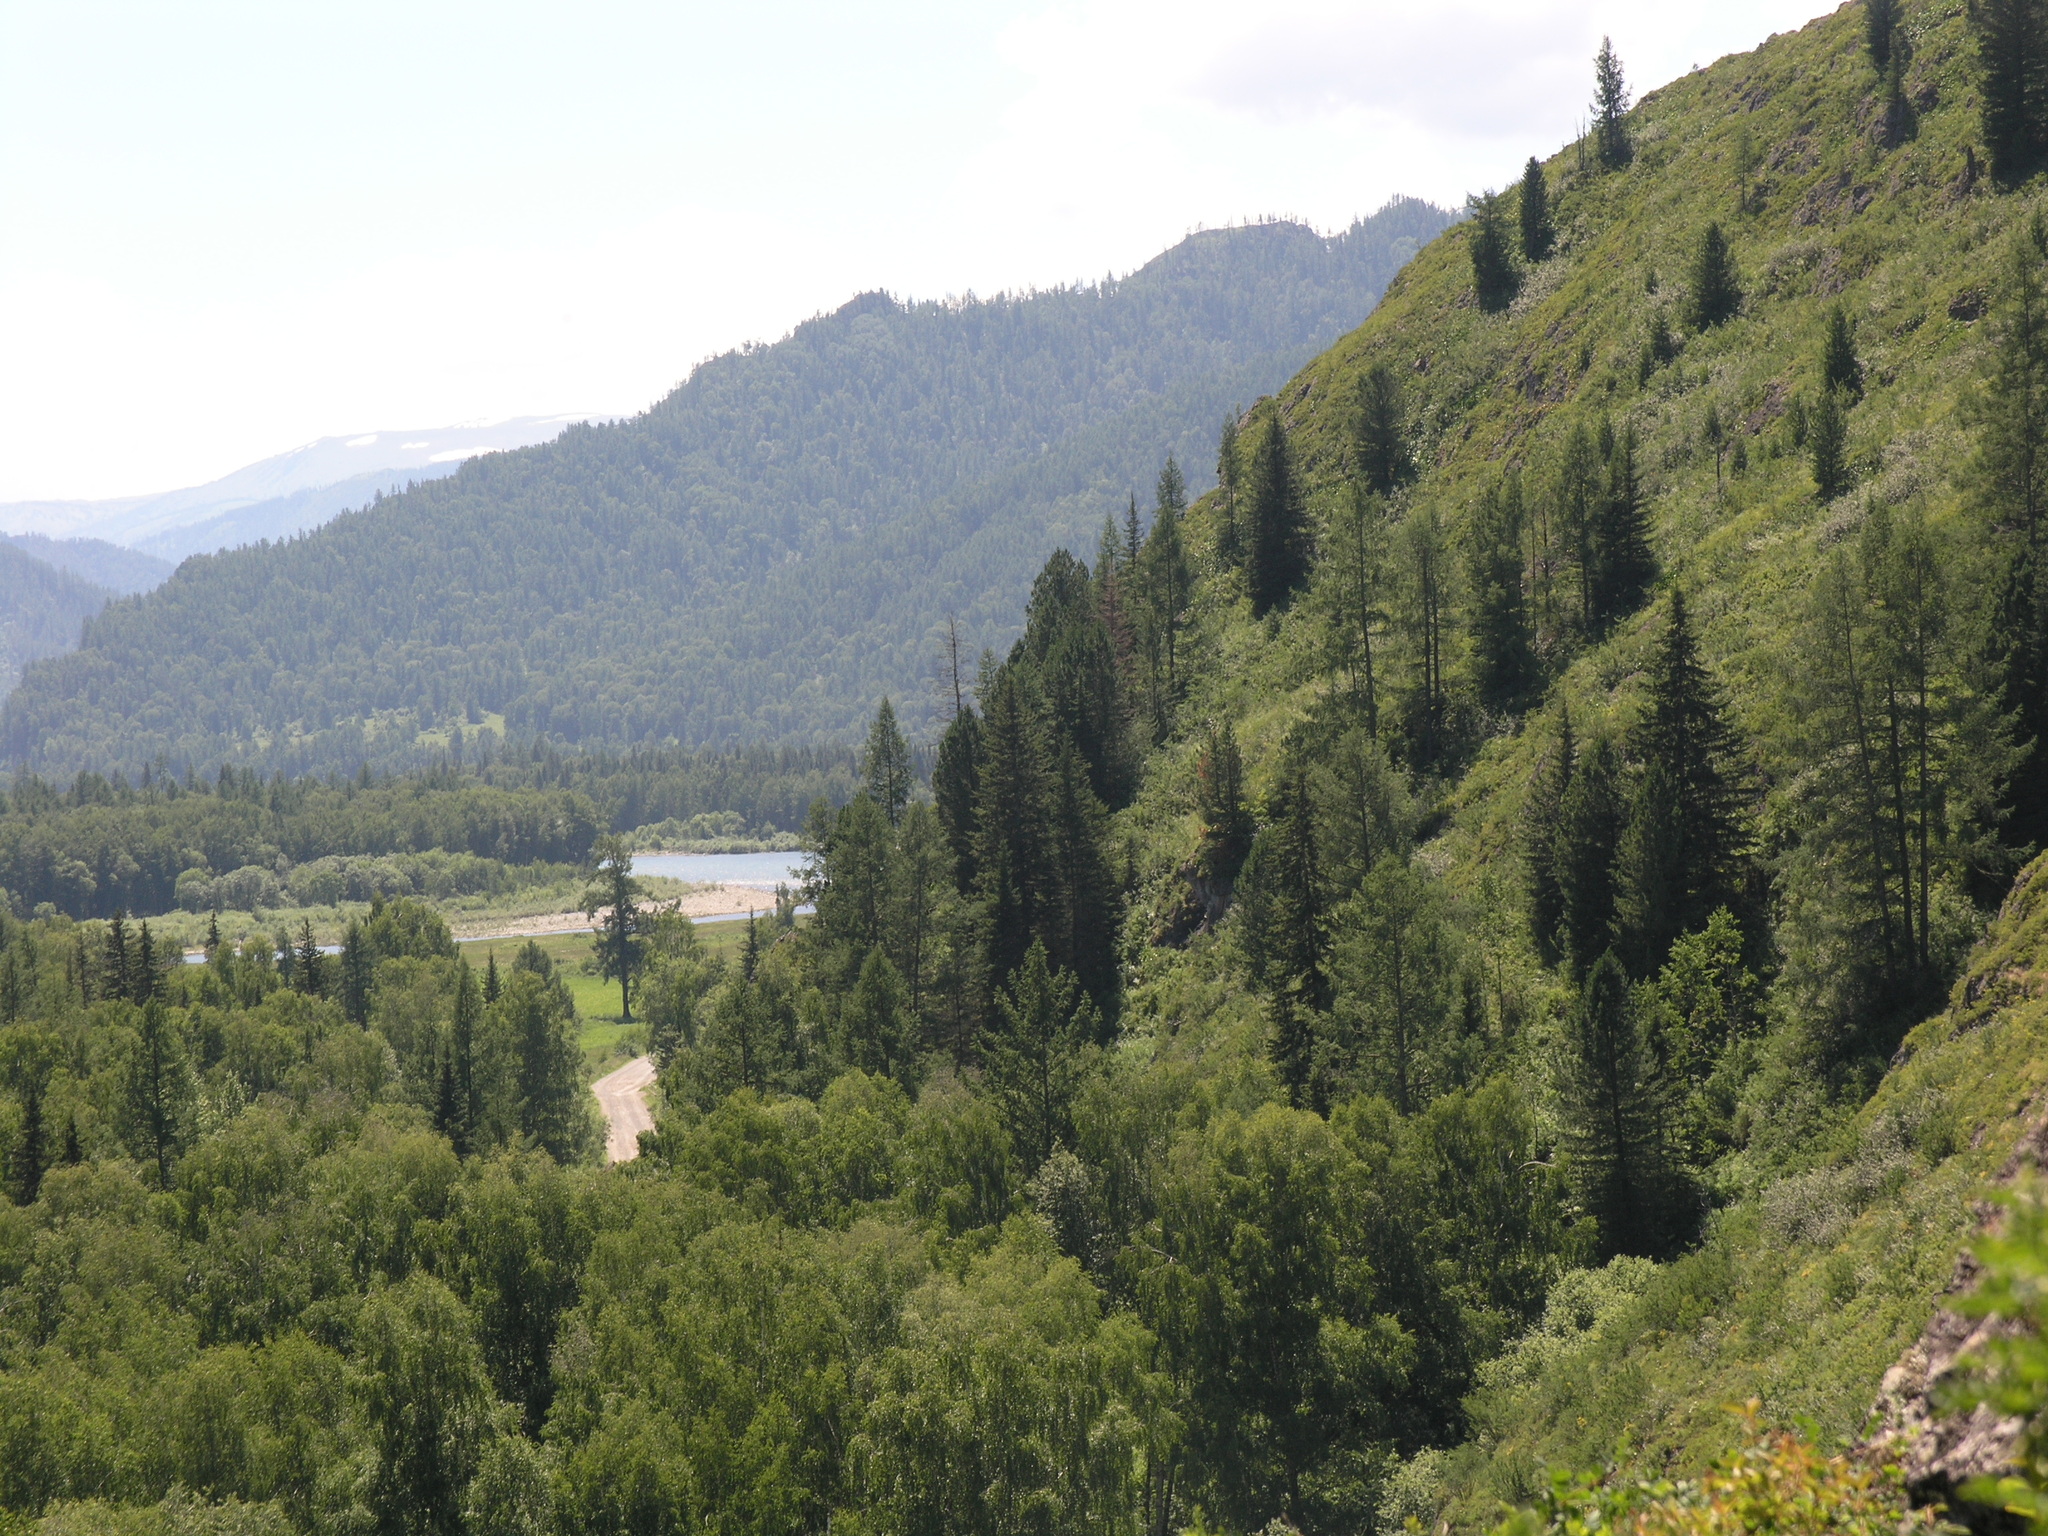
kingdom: Plantae
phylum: Tracheophyta
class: Pinopsida
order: Pinales
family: Pinaceae
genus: Picea
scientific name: Picea obovata
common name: Siberian spruce
